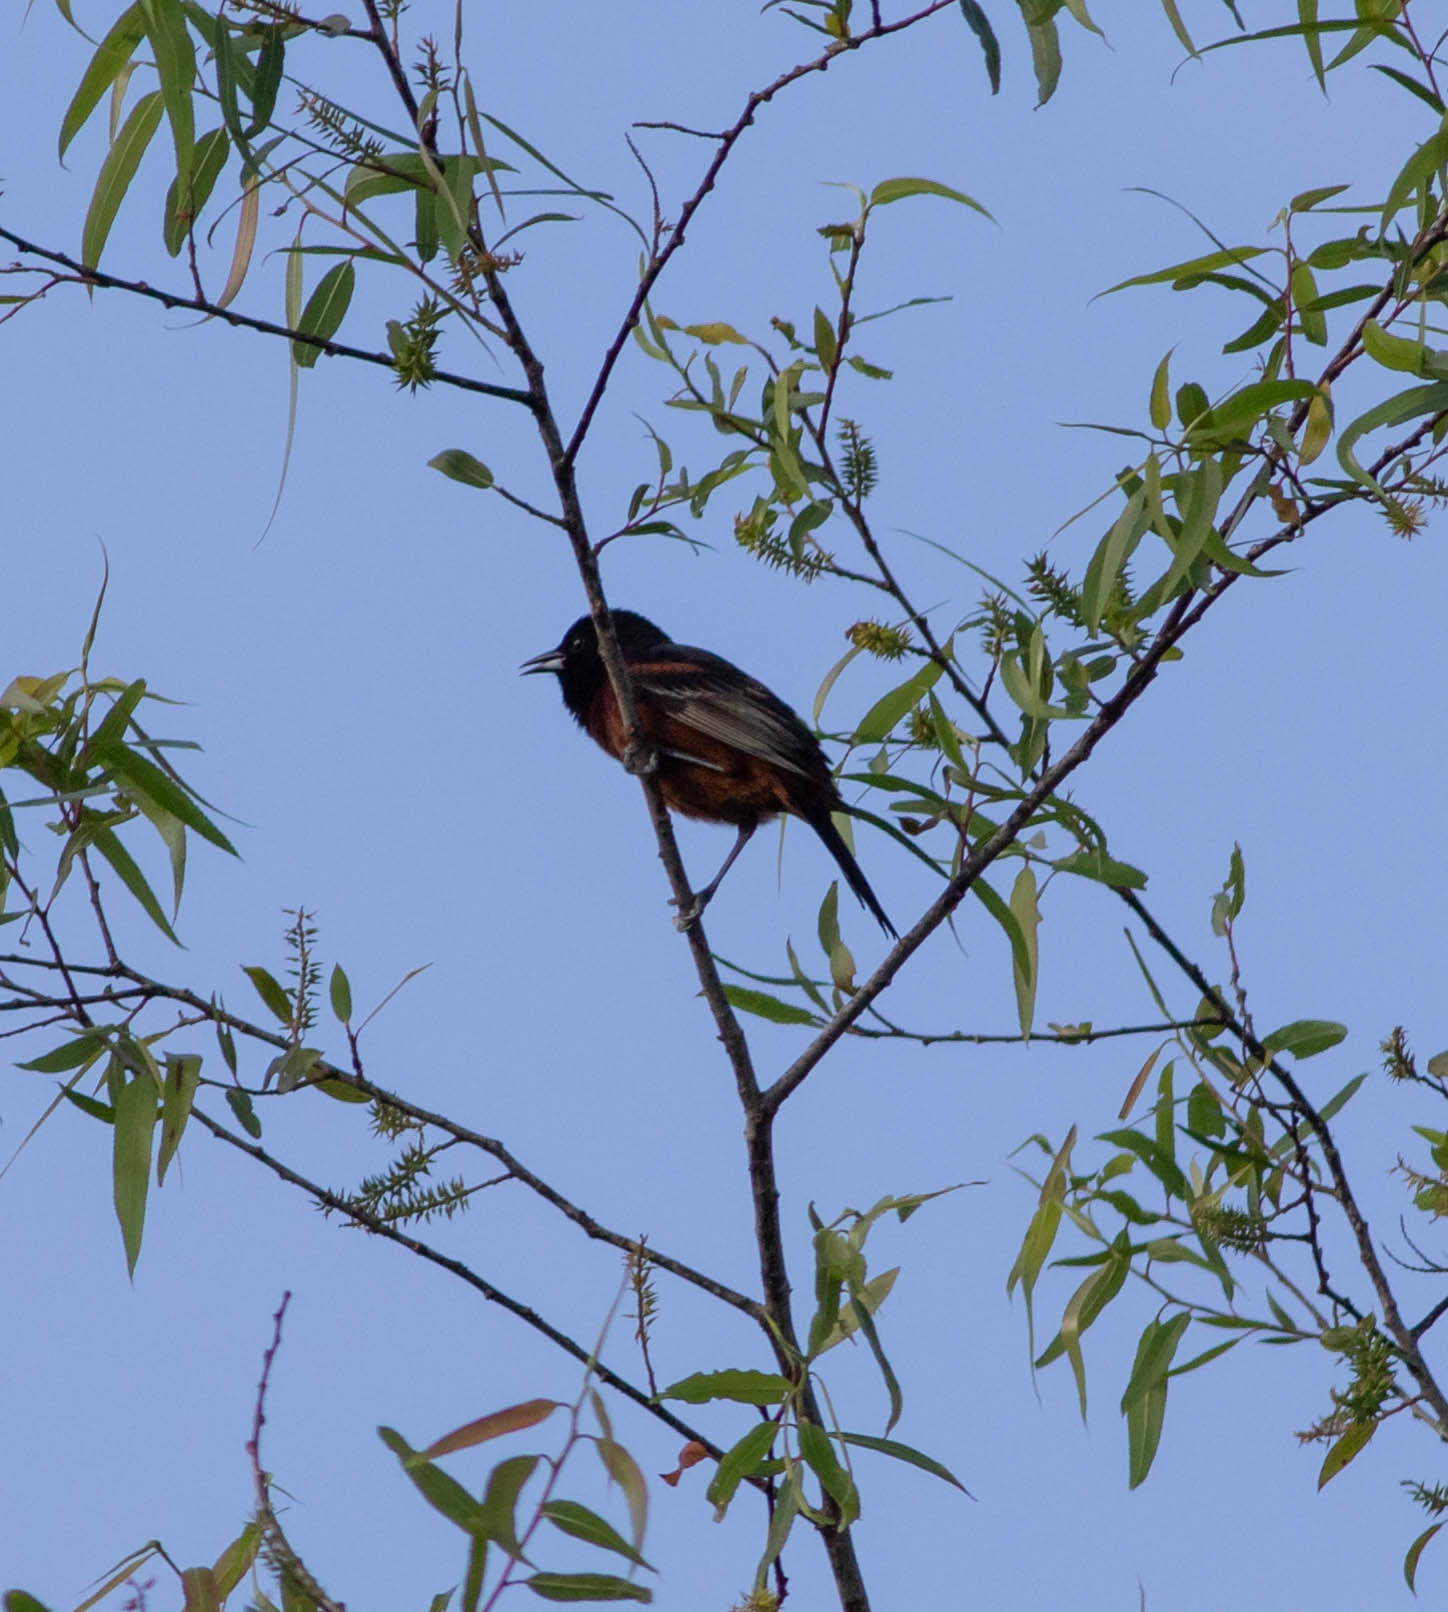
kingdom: Animalia
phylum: Chordata
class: Aves
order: Passeriformes
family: Icteridae
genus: Icterus
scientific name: Icterus spurius
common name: Orchard oriole
